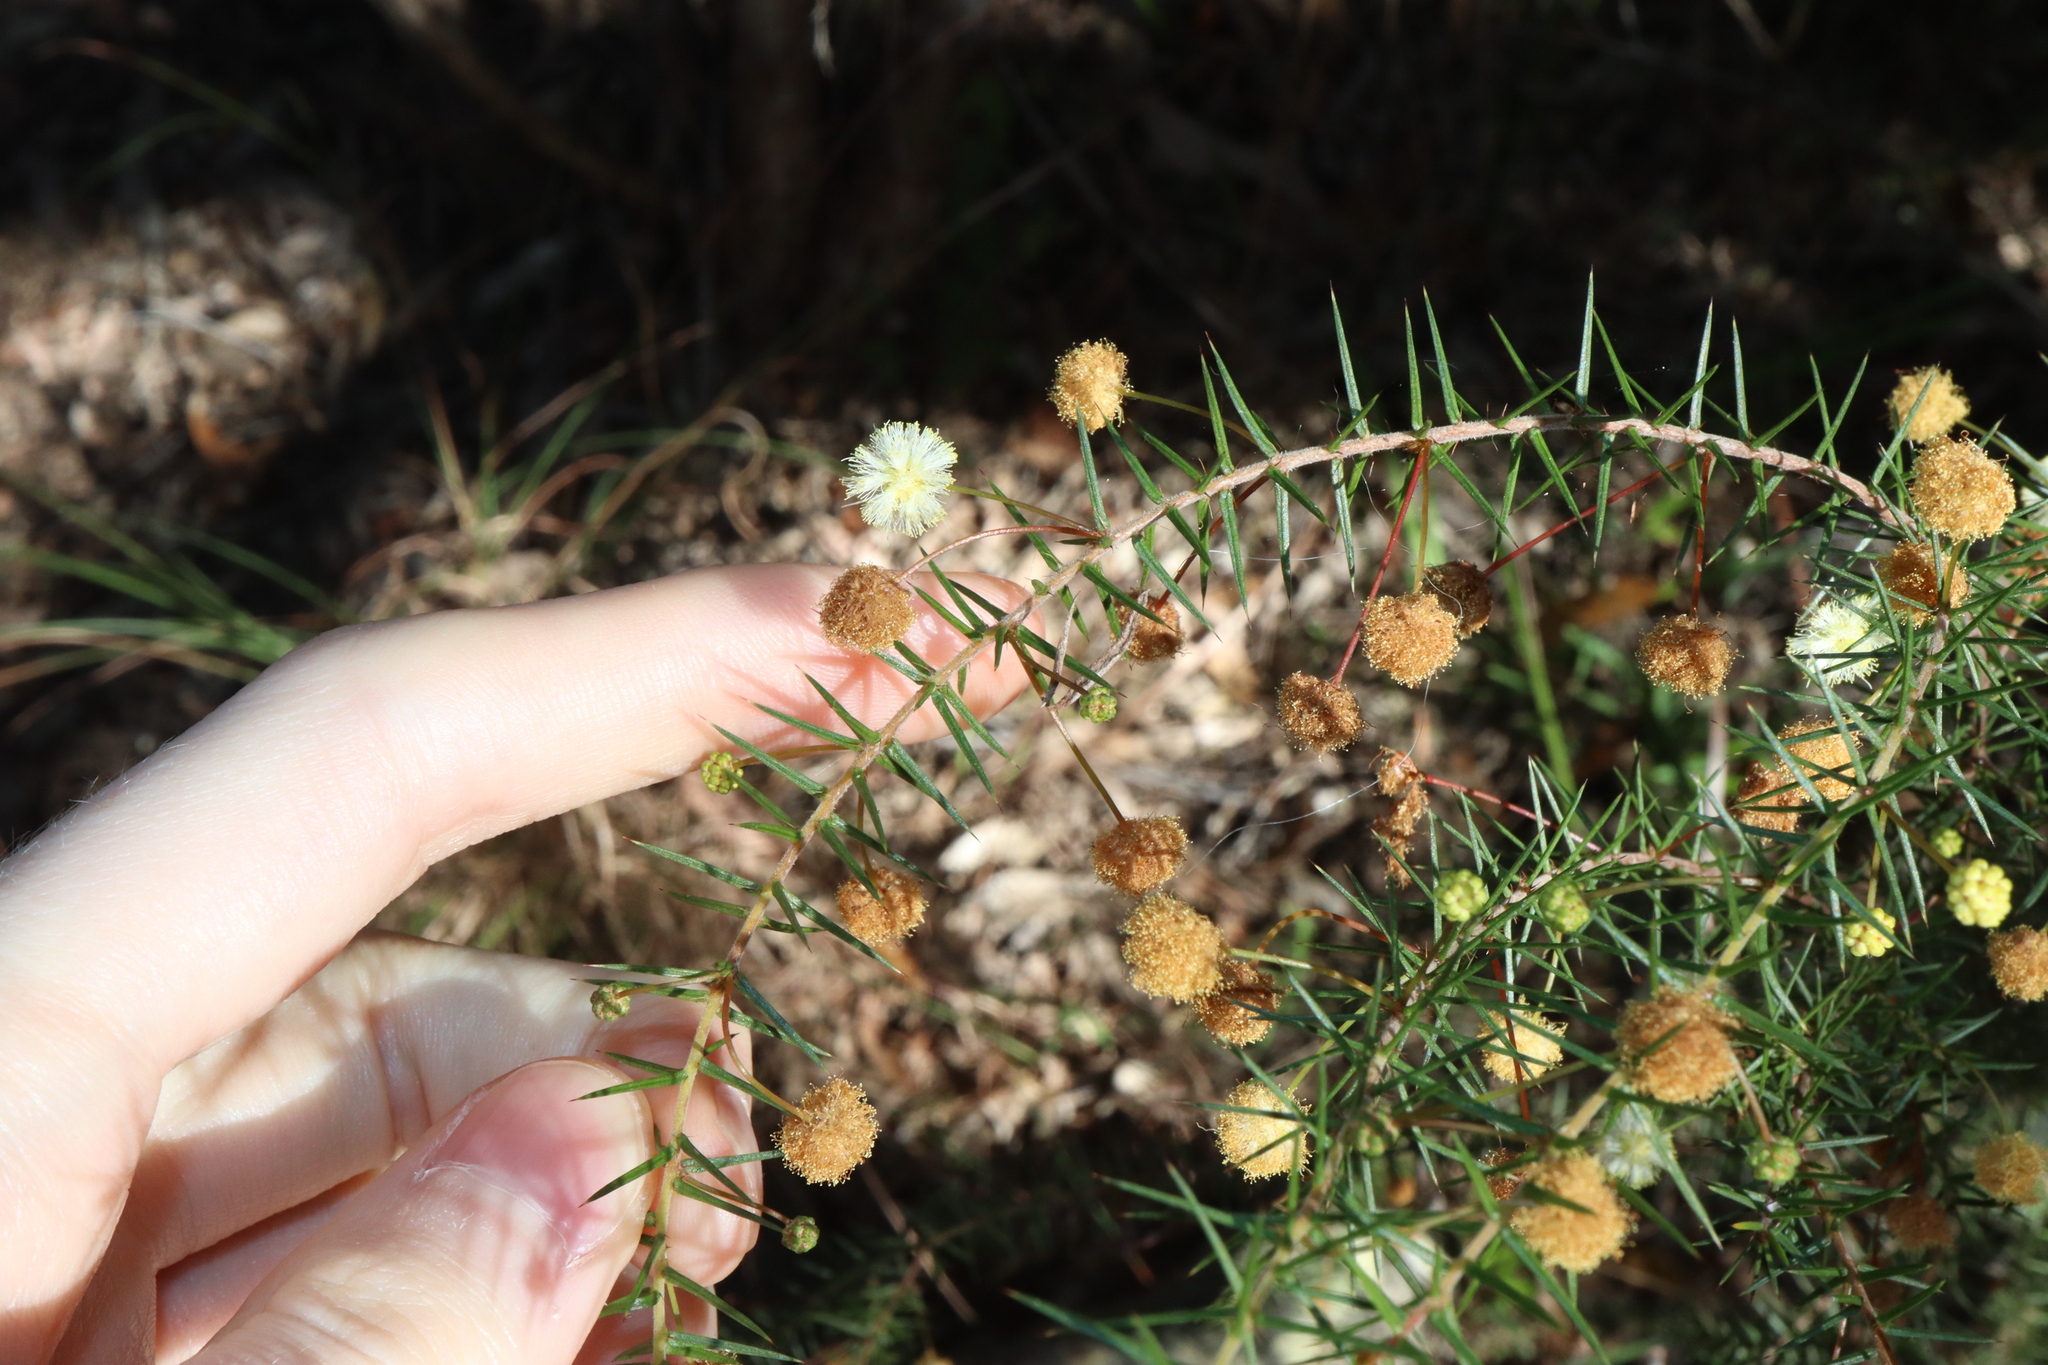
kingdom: Plantae
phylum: Tracheophyta
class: Magnoliopsida
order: Fabales
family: Fabaceae
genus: Acacia
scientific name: Acacia ulicifolia
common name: Juniper wattle
